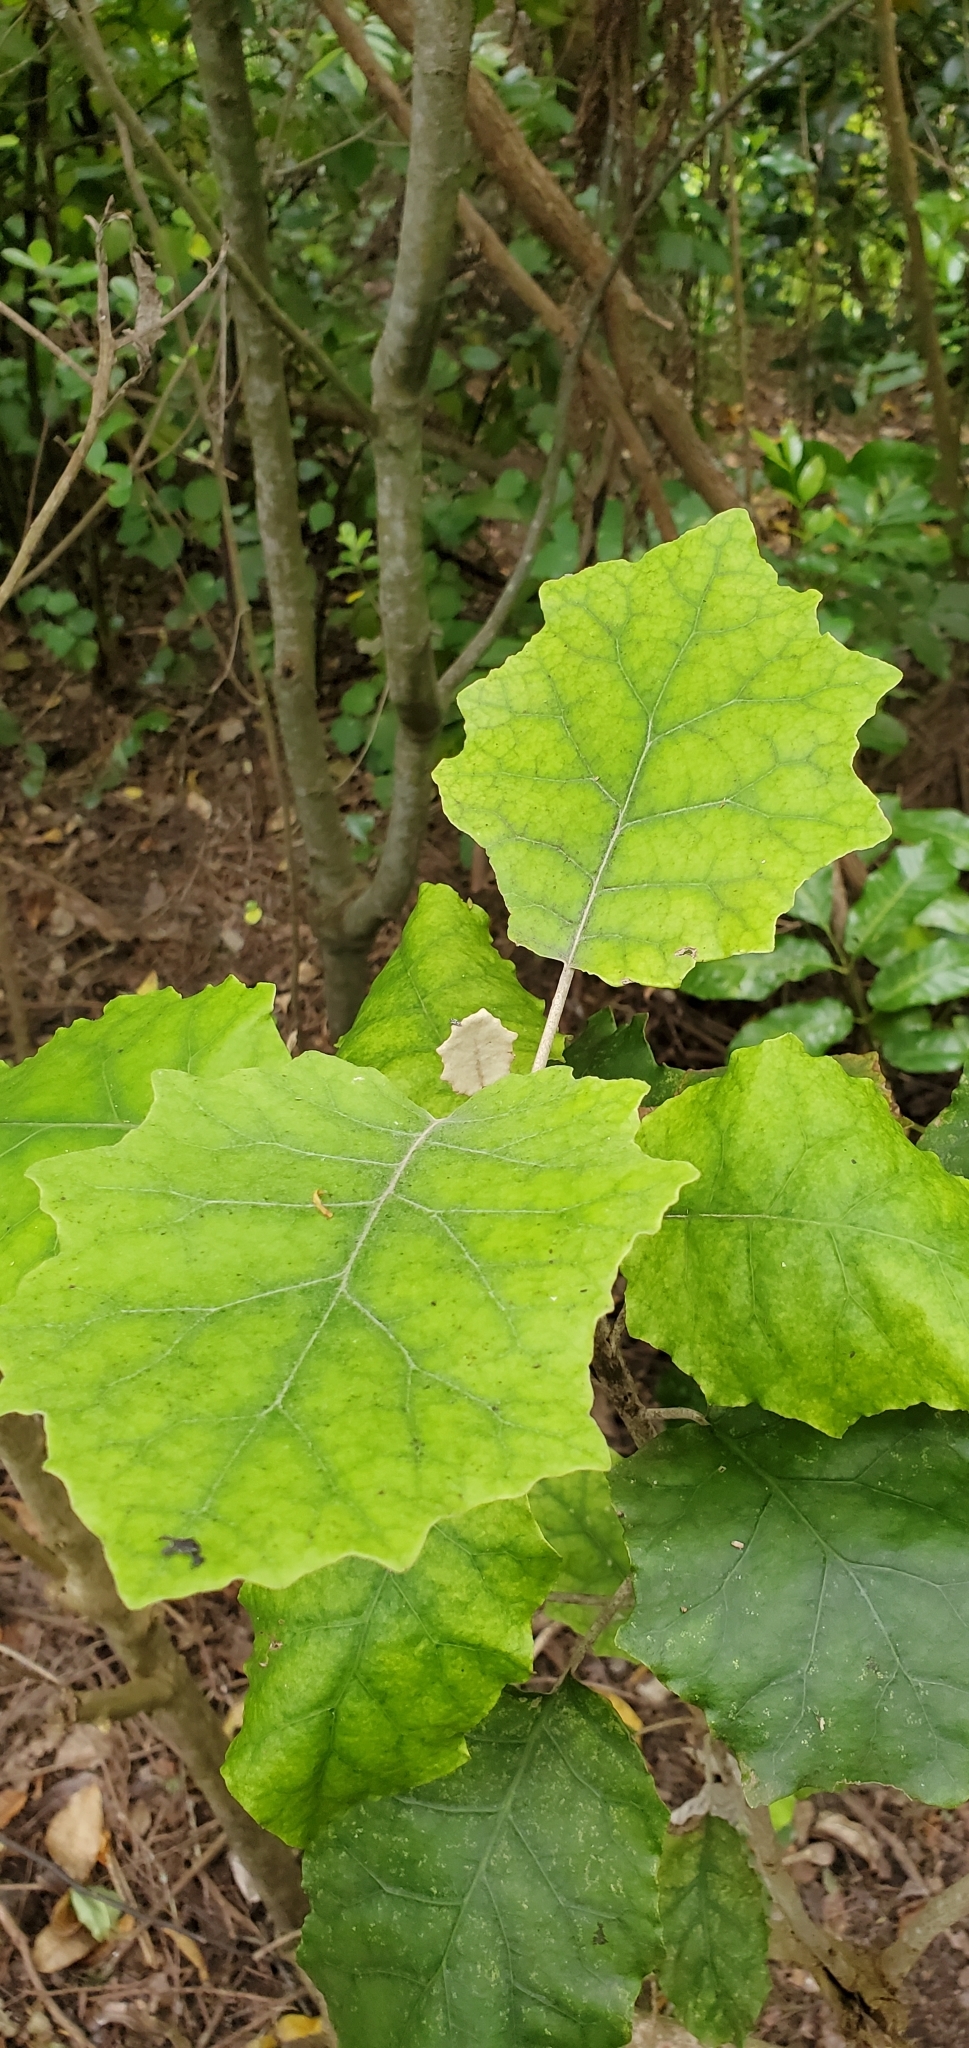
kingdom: Plantae
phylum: Tracheophyta
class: Magnoliopsida
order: Asterales
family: Asteraceae
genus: Brachyglottis
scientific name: Brachyglottis repanda
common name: Hedge ragwort
